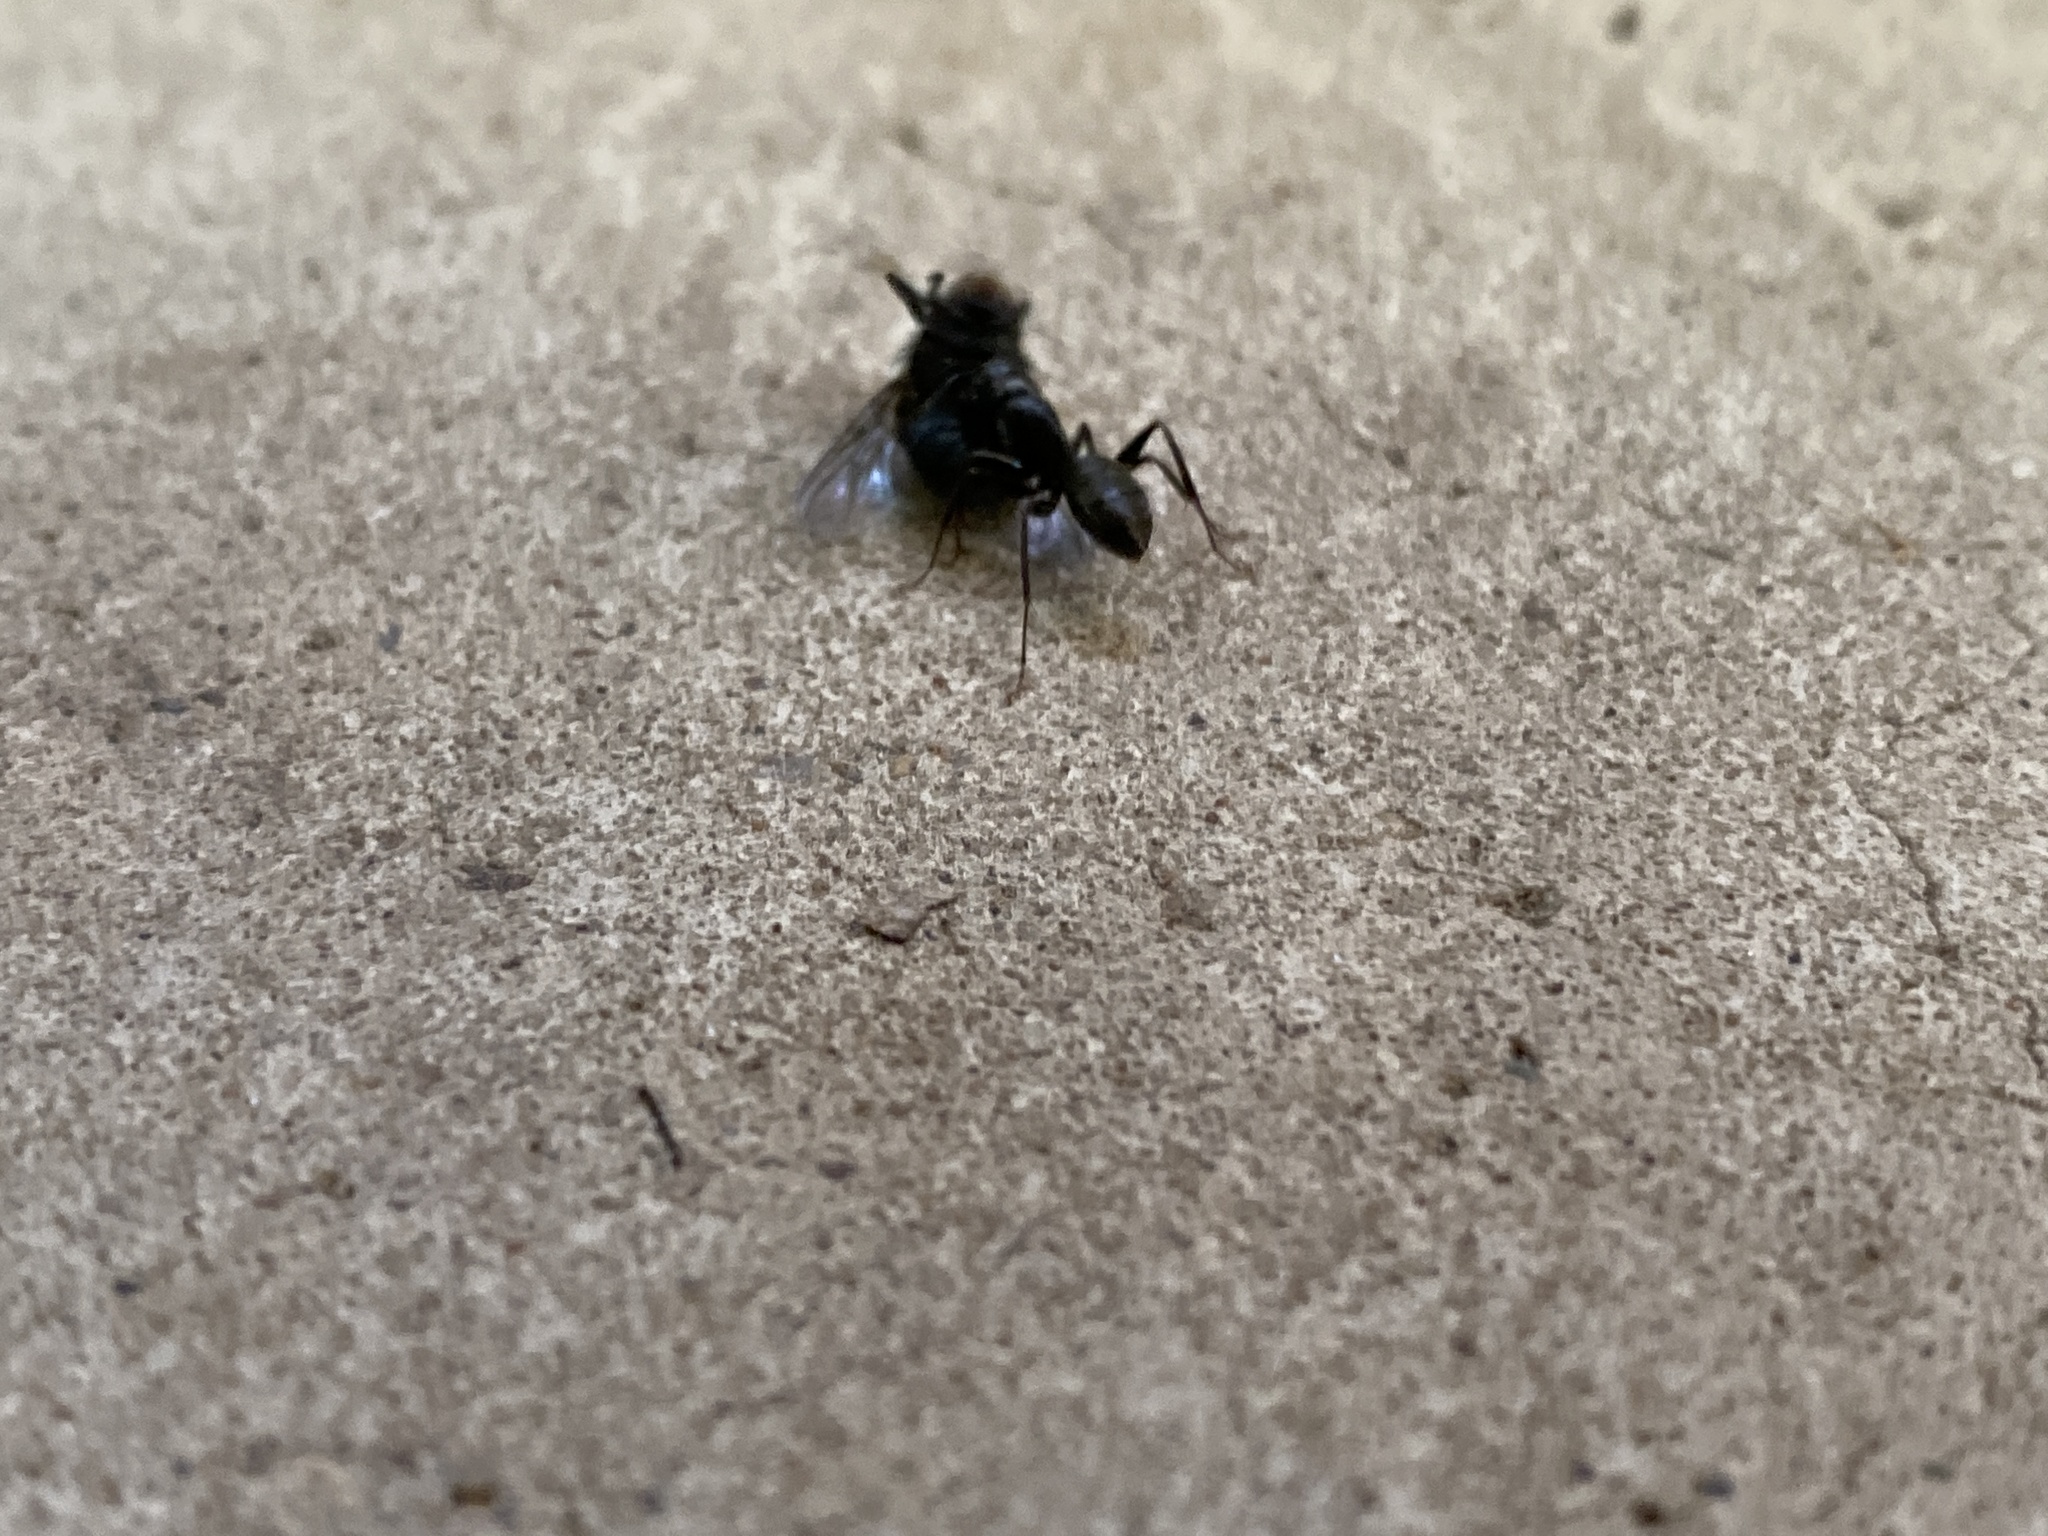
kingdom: Animalia
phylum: Arthropoda
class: Insecta
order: Hymenoptera
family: Formicidae
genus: Camponotus
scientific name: Camponotus pennsylvanicus
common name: Black carpenter ant
